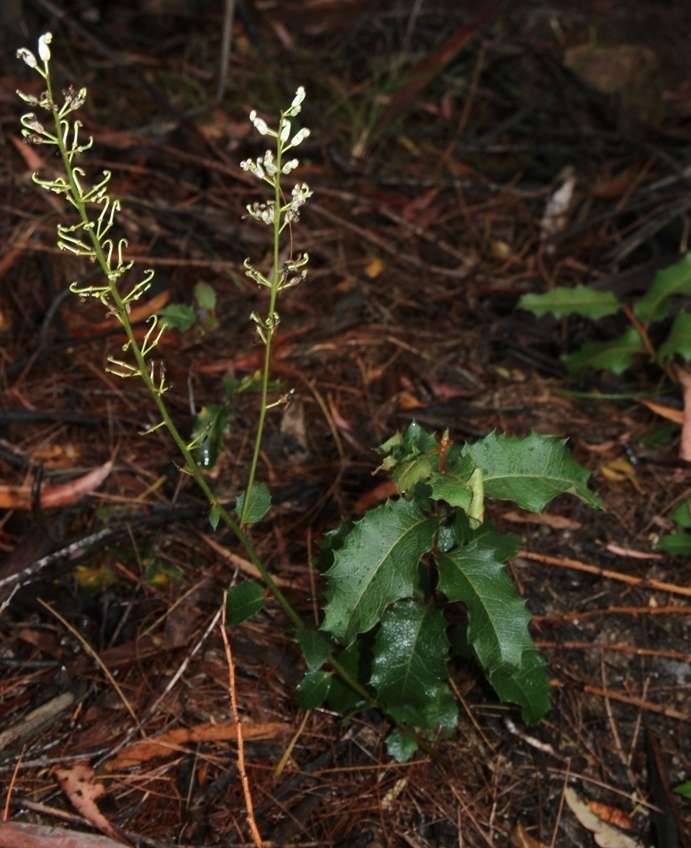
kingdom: Plantae
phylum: Tracheophyta
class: Magnoliopsida
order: Proteales
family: Proteaceae
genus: Lomatia
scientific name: Lomatia ilicifolia
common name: Native-holly
